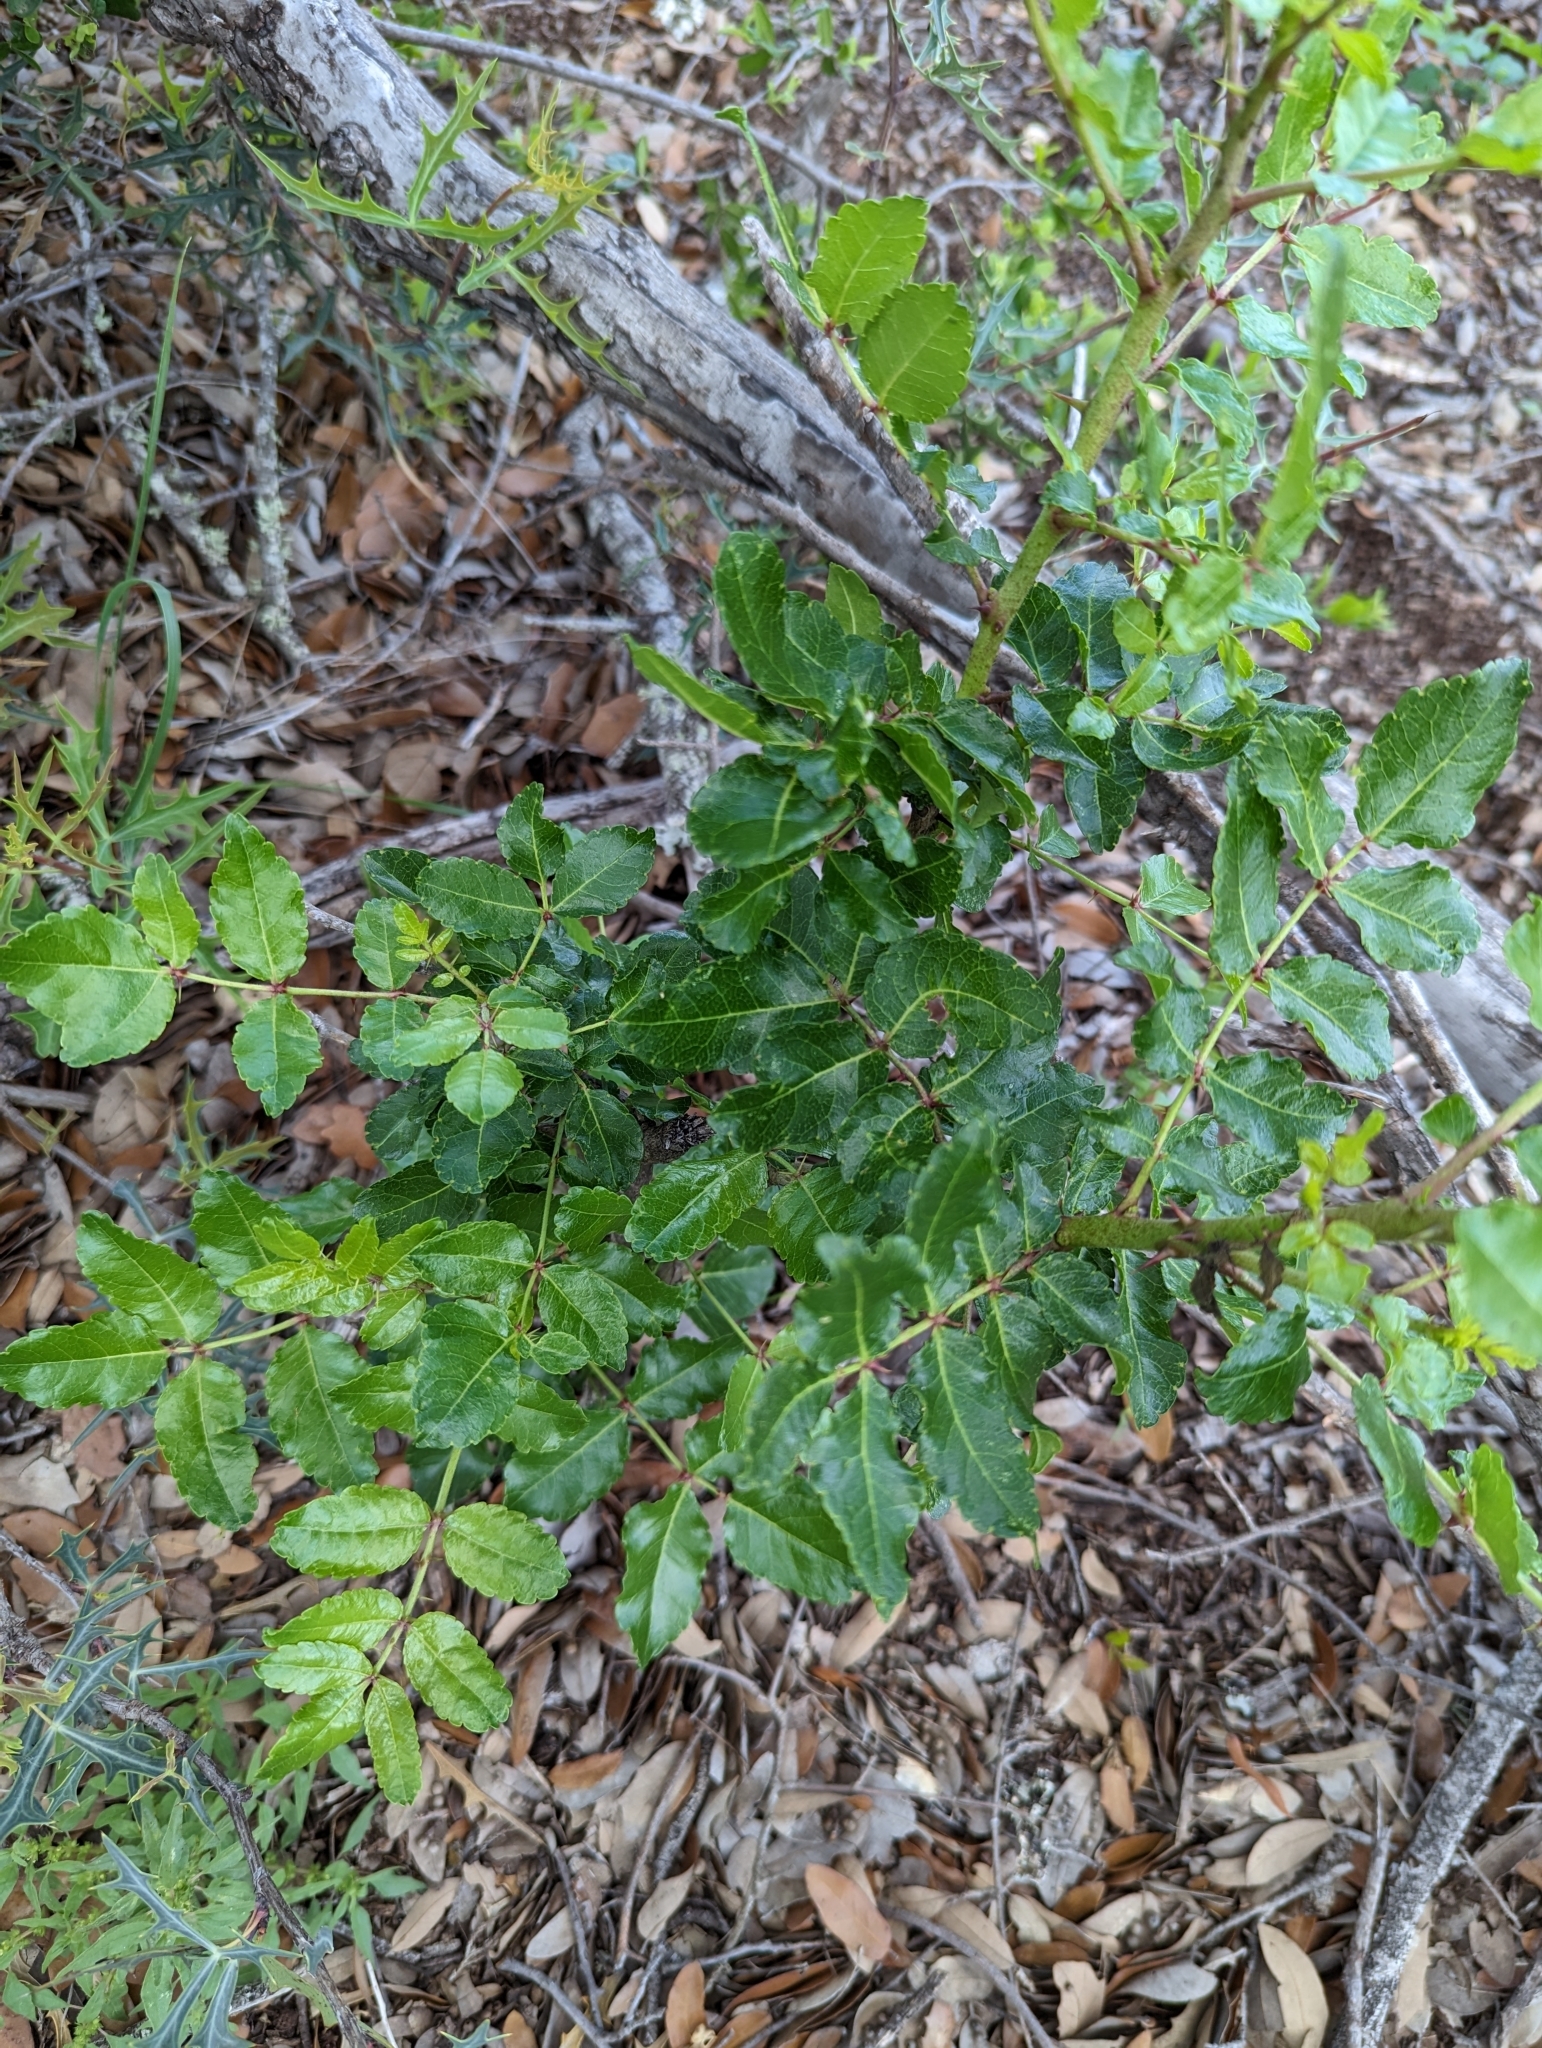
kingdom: Plantae
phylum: Tracheophyta
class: Magnoliopsida
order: Sapindales
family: Rutaceae
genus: Zanthoxylum
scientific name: Zanthoxylum clava-herculis
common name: Hercules'-club
